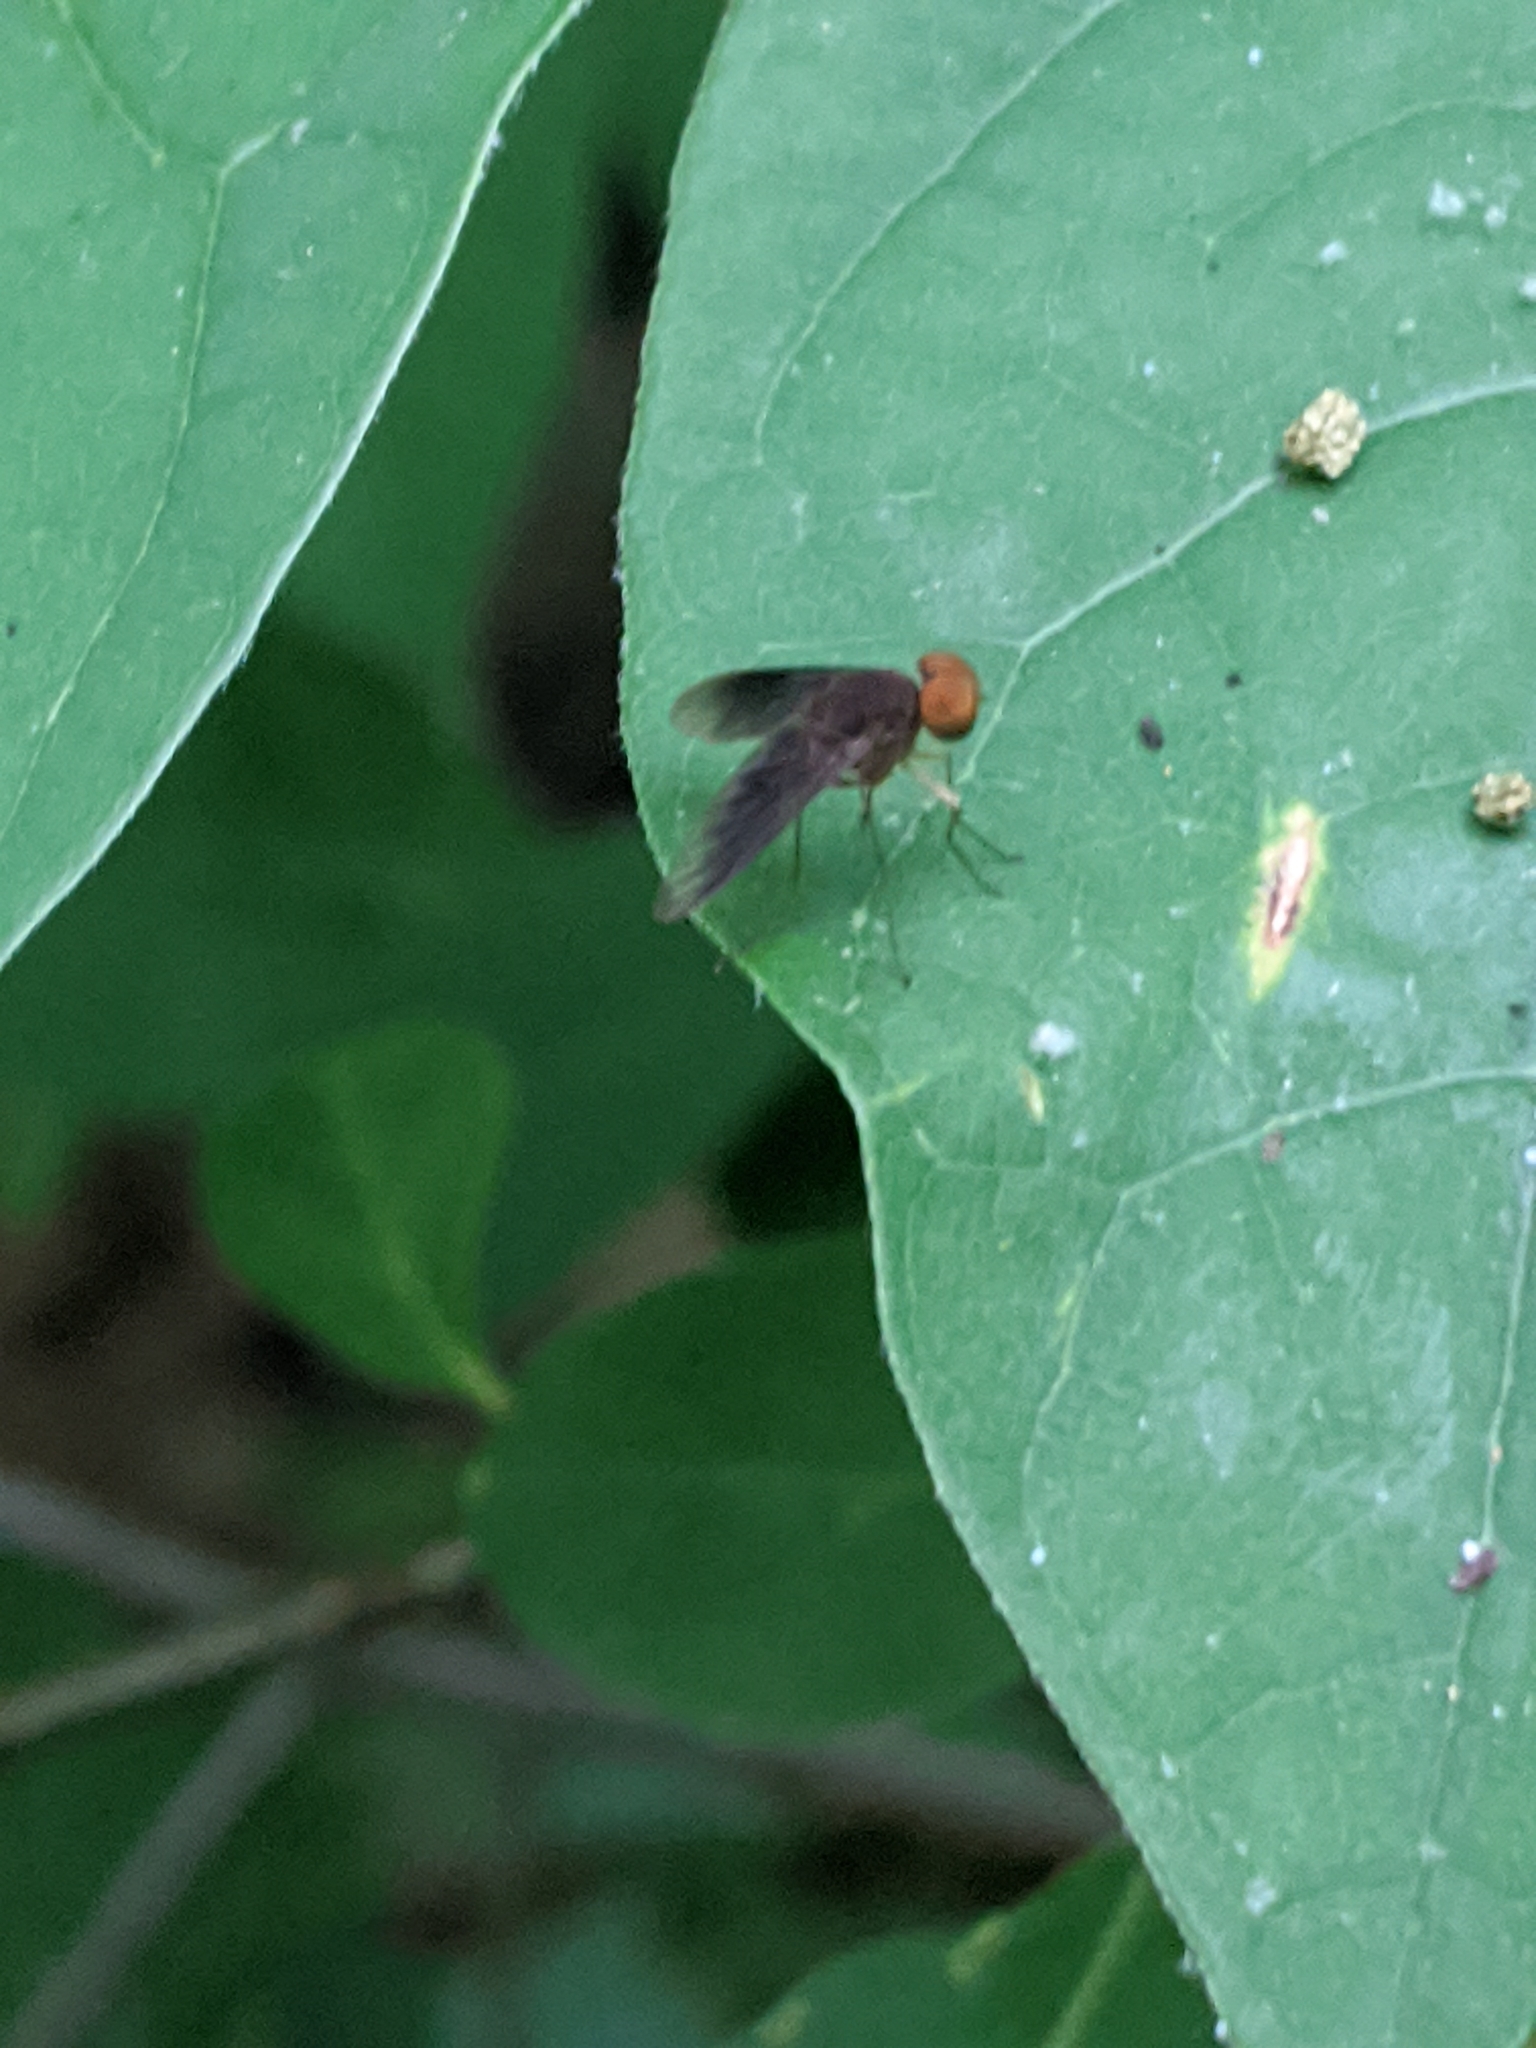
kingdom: Animalia
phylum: Arthropoda
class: Insecta
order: Diptera
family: Rhagionidae
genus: Chrysopilus
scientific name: Chrysopilus quadratus
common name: Quadrate snipe fly
